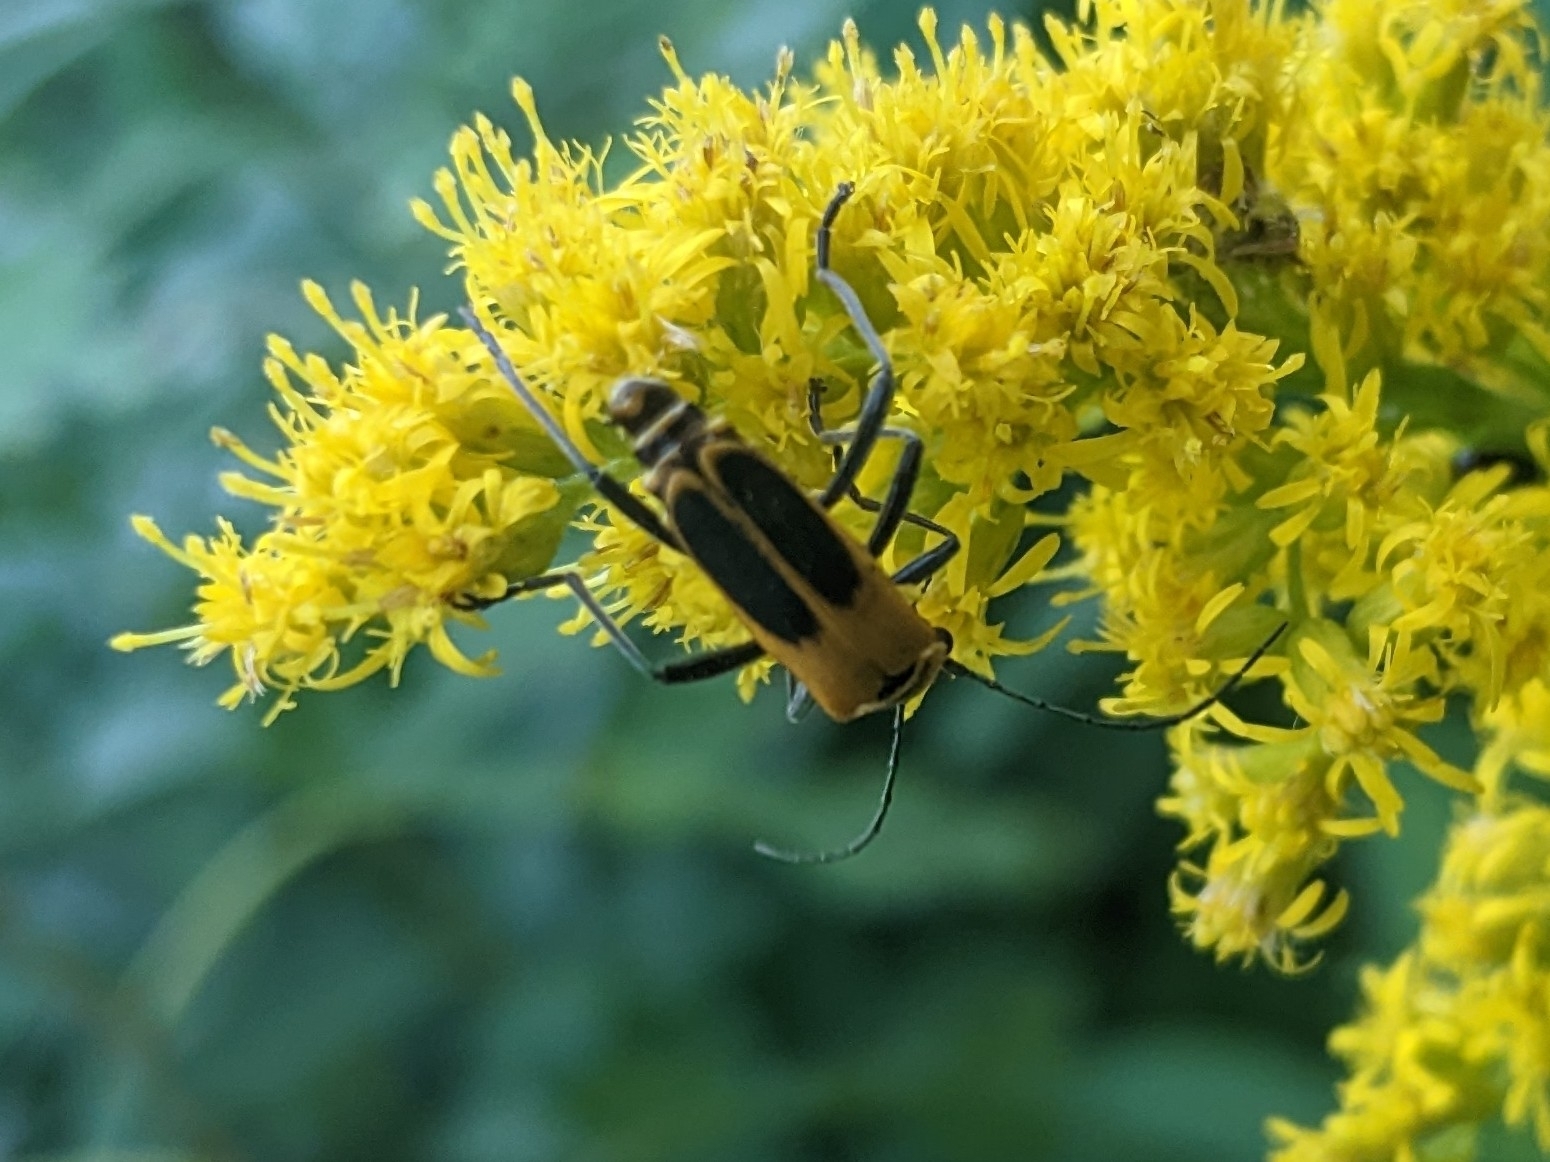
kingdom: Animalia
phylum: Arthropoda
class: Insecta
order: Coleoptera
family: Cantharidae
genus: Chauliognathus
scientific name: Chauliognathus pensylvanicus
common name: Goldenrod soldier beetle
